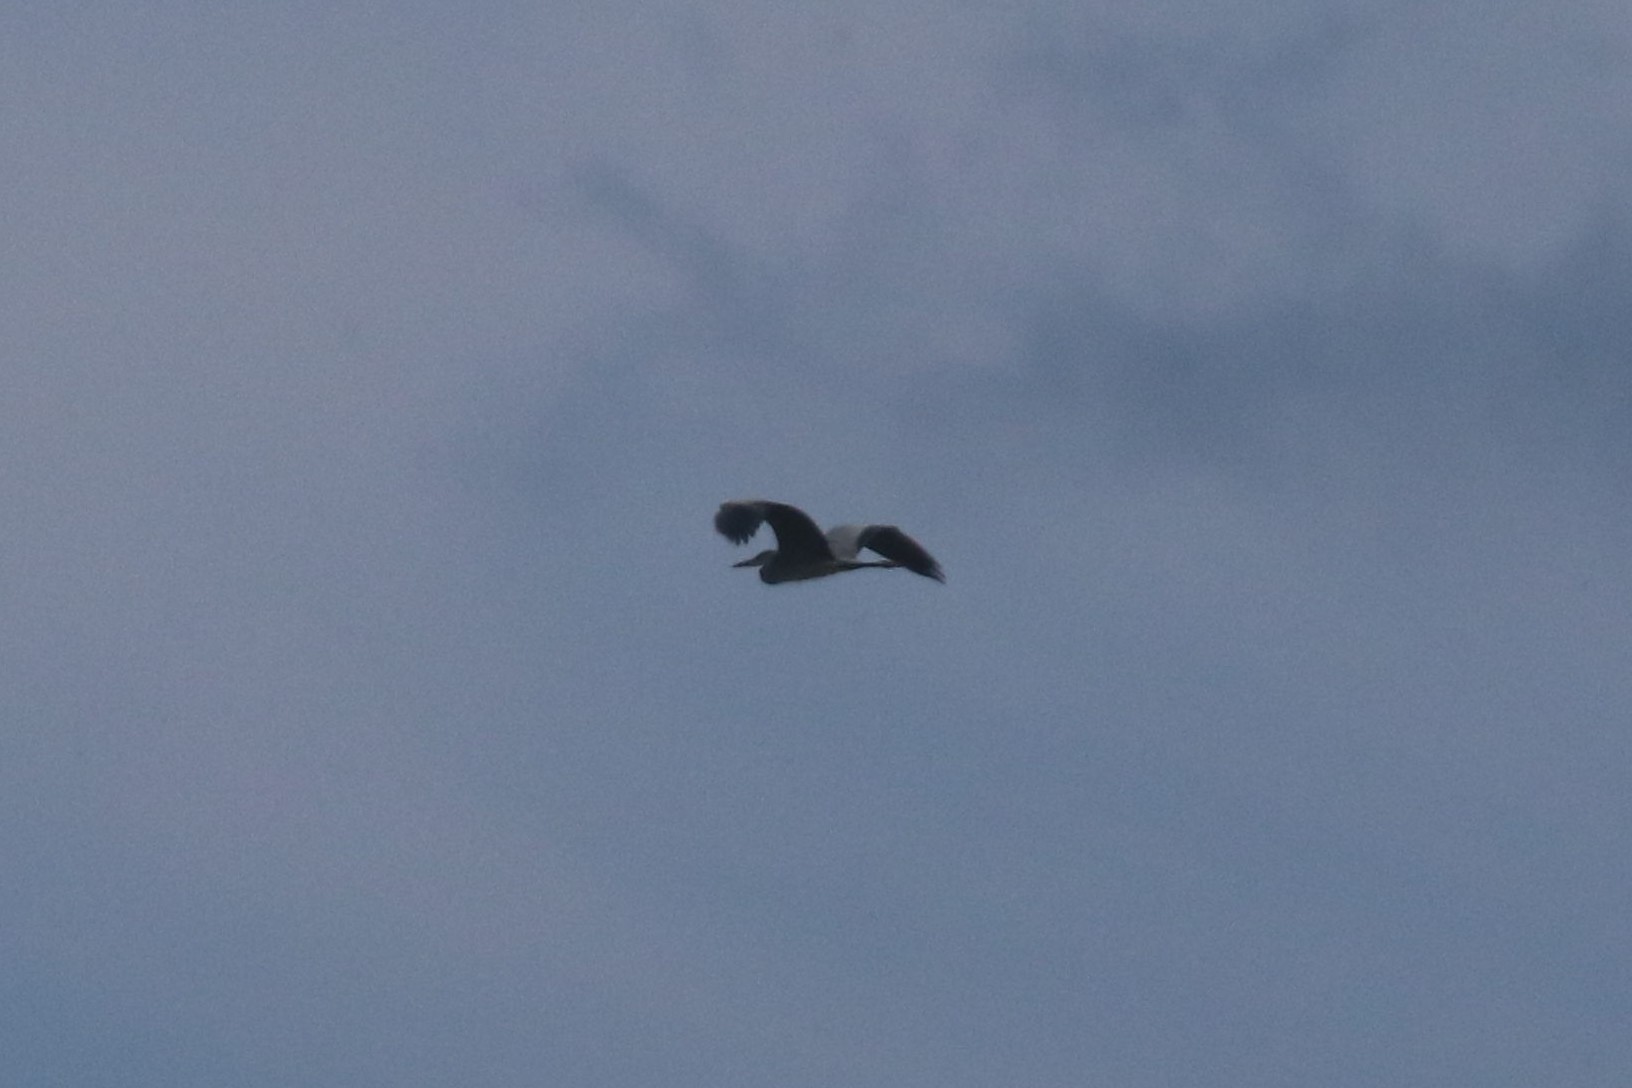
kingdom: Animalia
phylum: Chordata
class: Aves
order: Pelecaniformes
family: Ardeidae
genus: Ardea
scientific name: Ardea cinerea
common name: Grey heron
